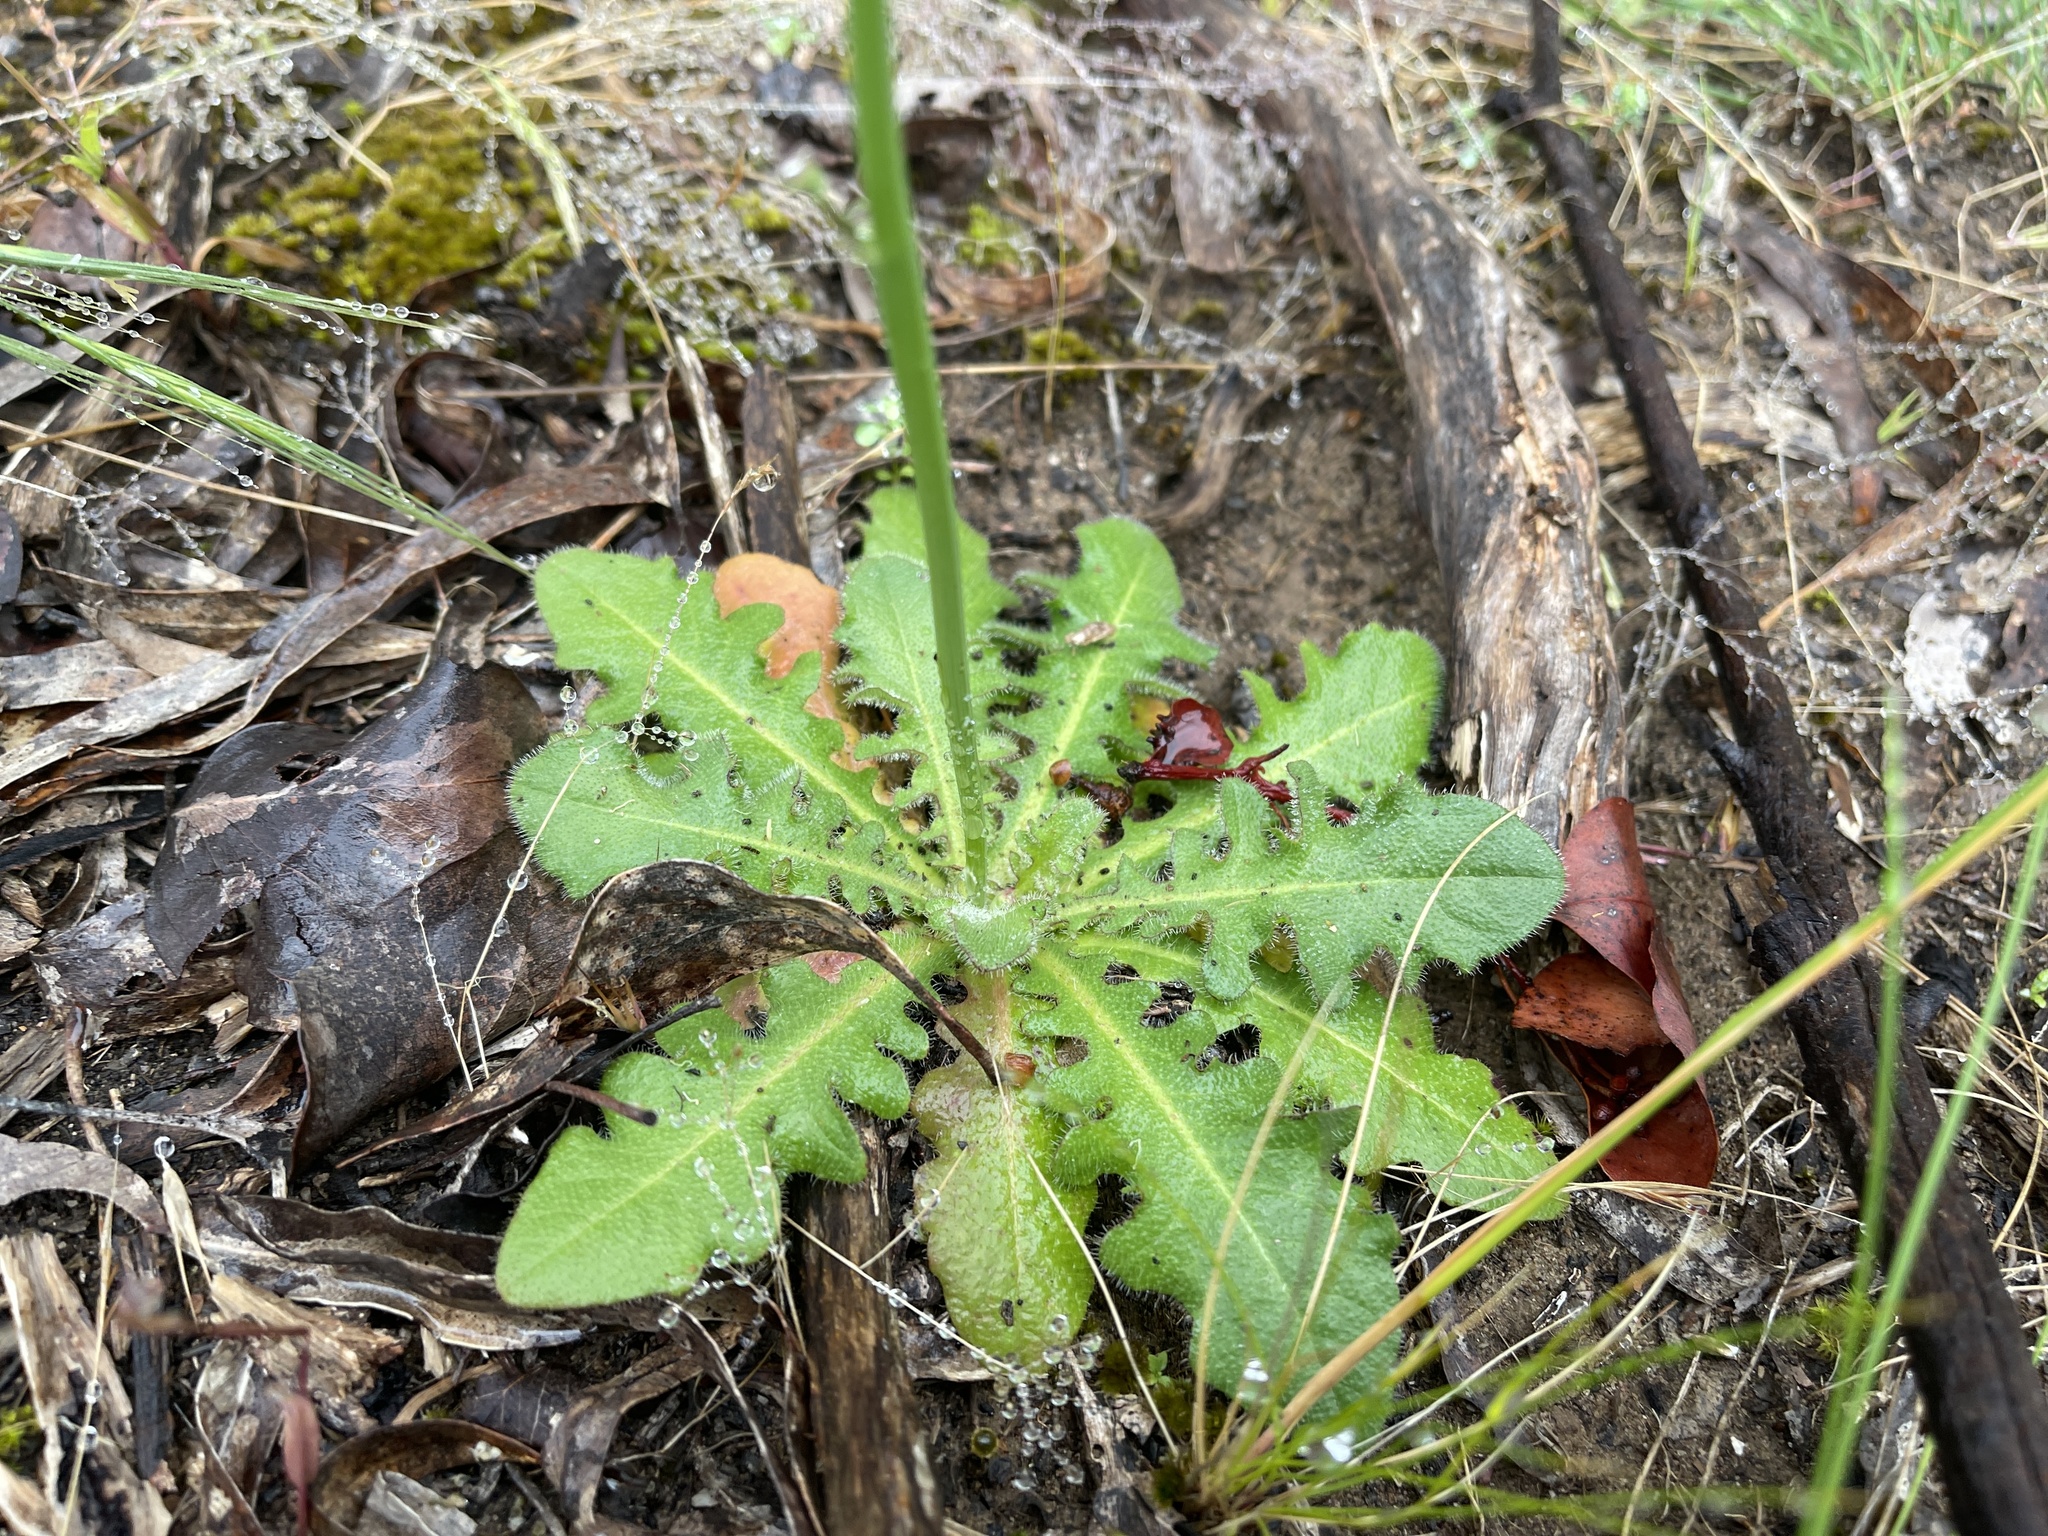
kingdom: Plantae
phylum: Tracheophyta
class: Magnoliopsida
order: Asterales
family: Asteraceae
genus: Hypochaeris
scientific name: Hypochaeris radicata
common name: Flatweed
